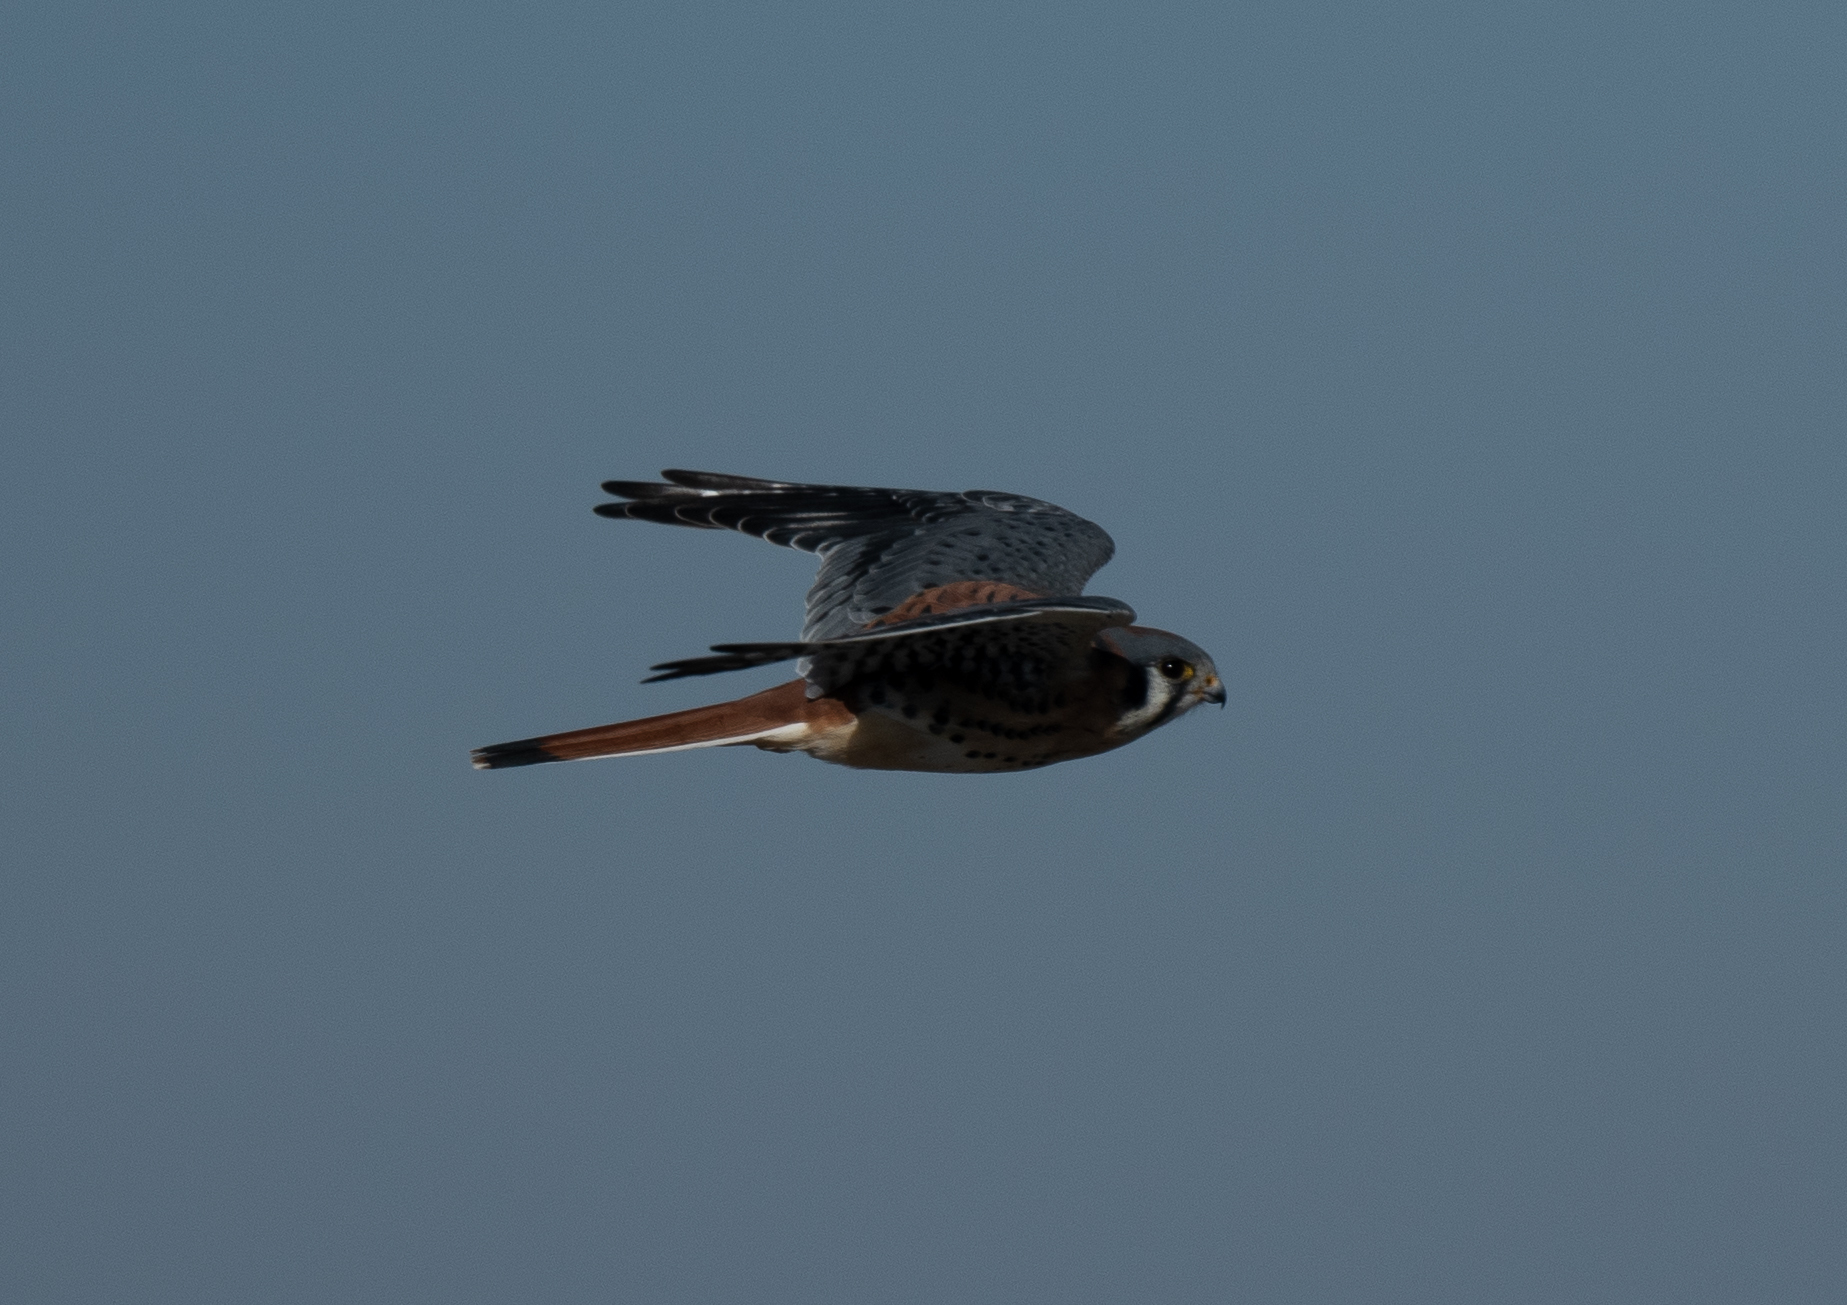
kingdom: Animalia
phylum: Chordata
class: Aves
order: Falconiformes
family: Falconidae
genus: Falco
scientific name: Falco sparverius
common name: American kestrel
